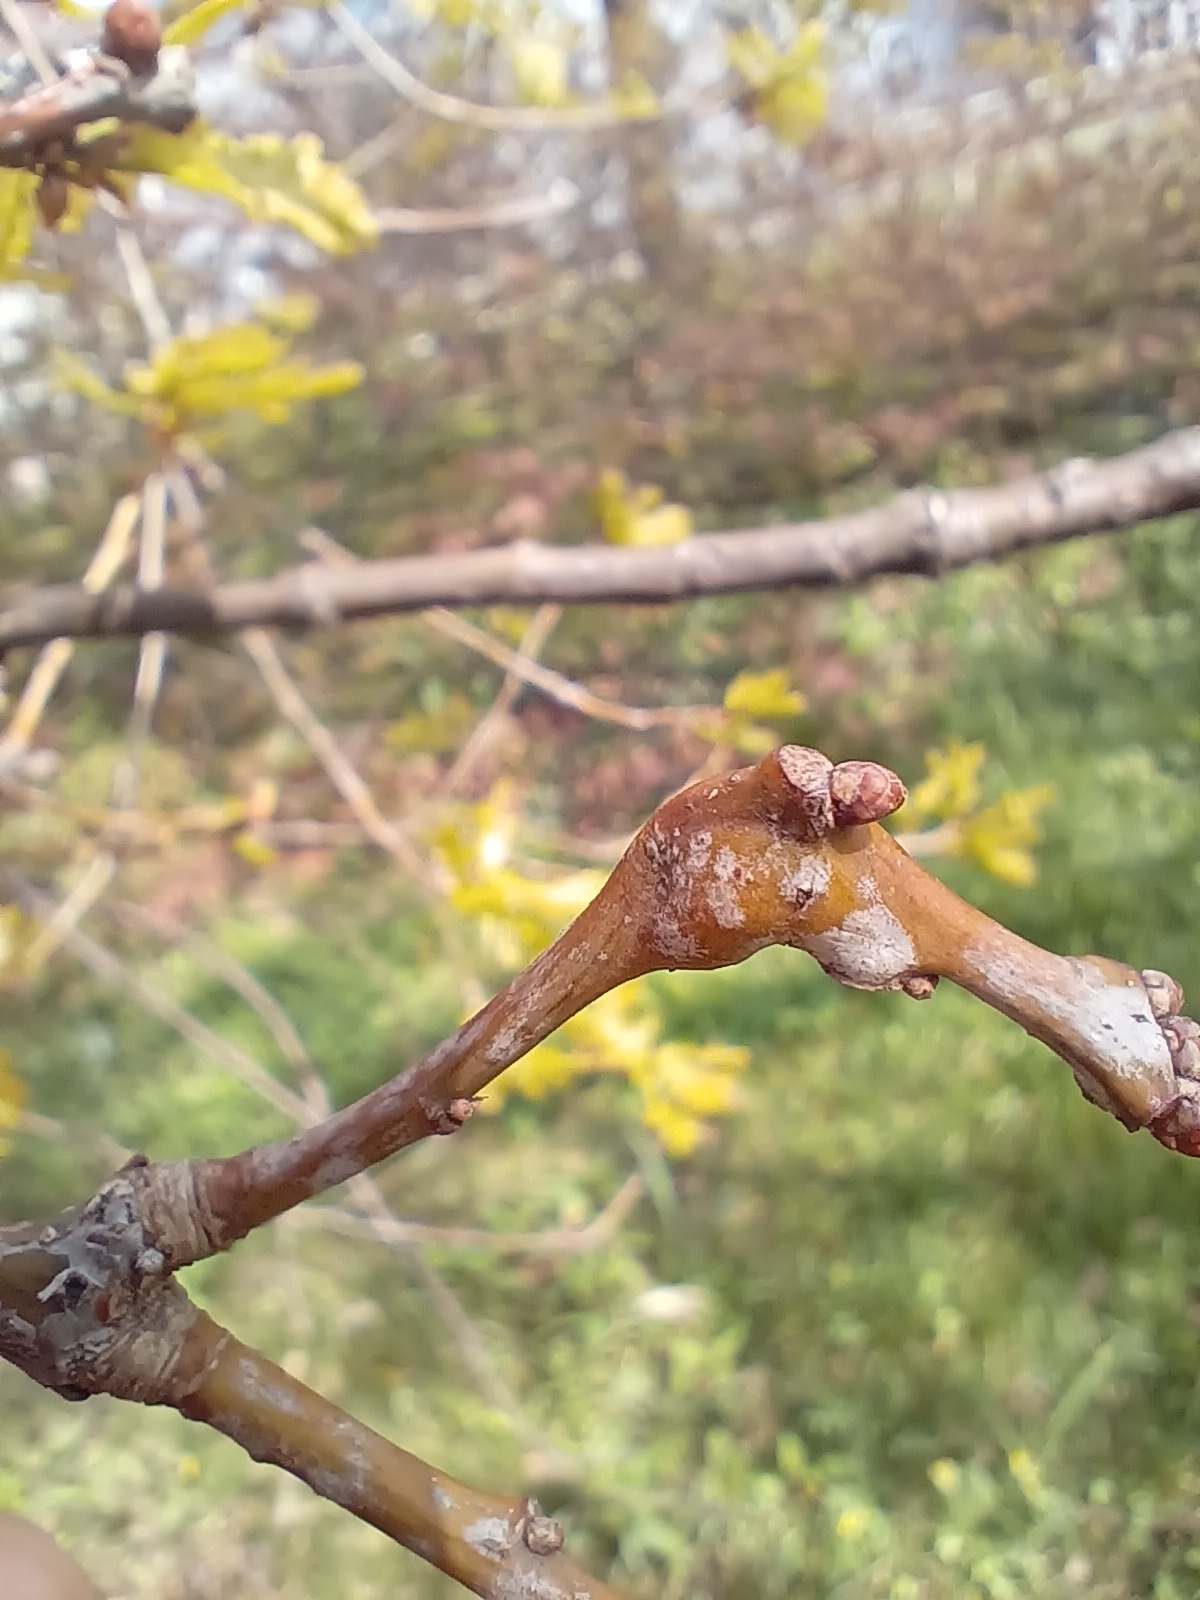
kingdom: Animalia
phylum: Arthropoda
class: Insecta
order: Hymenoptera
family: Cynipidae
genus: Andricus
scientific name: Andricus curvator
